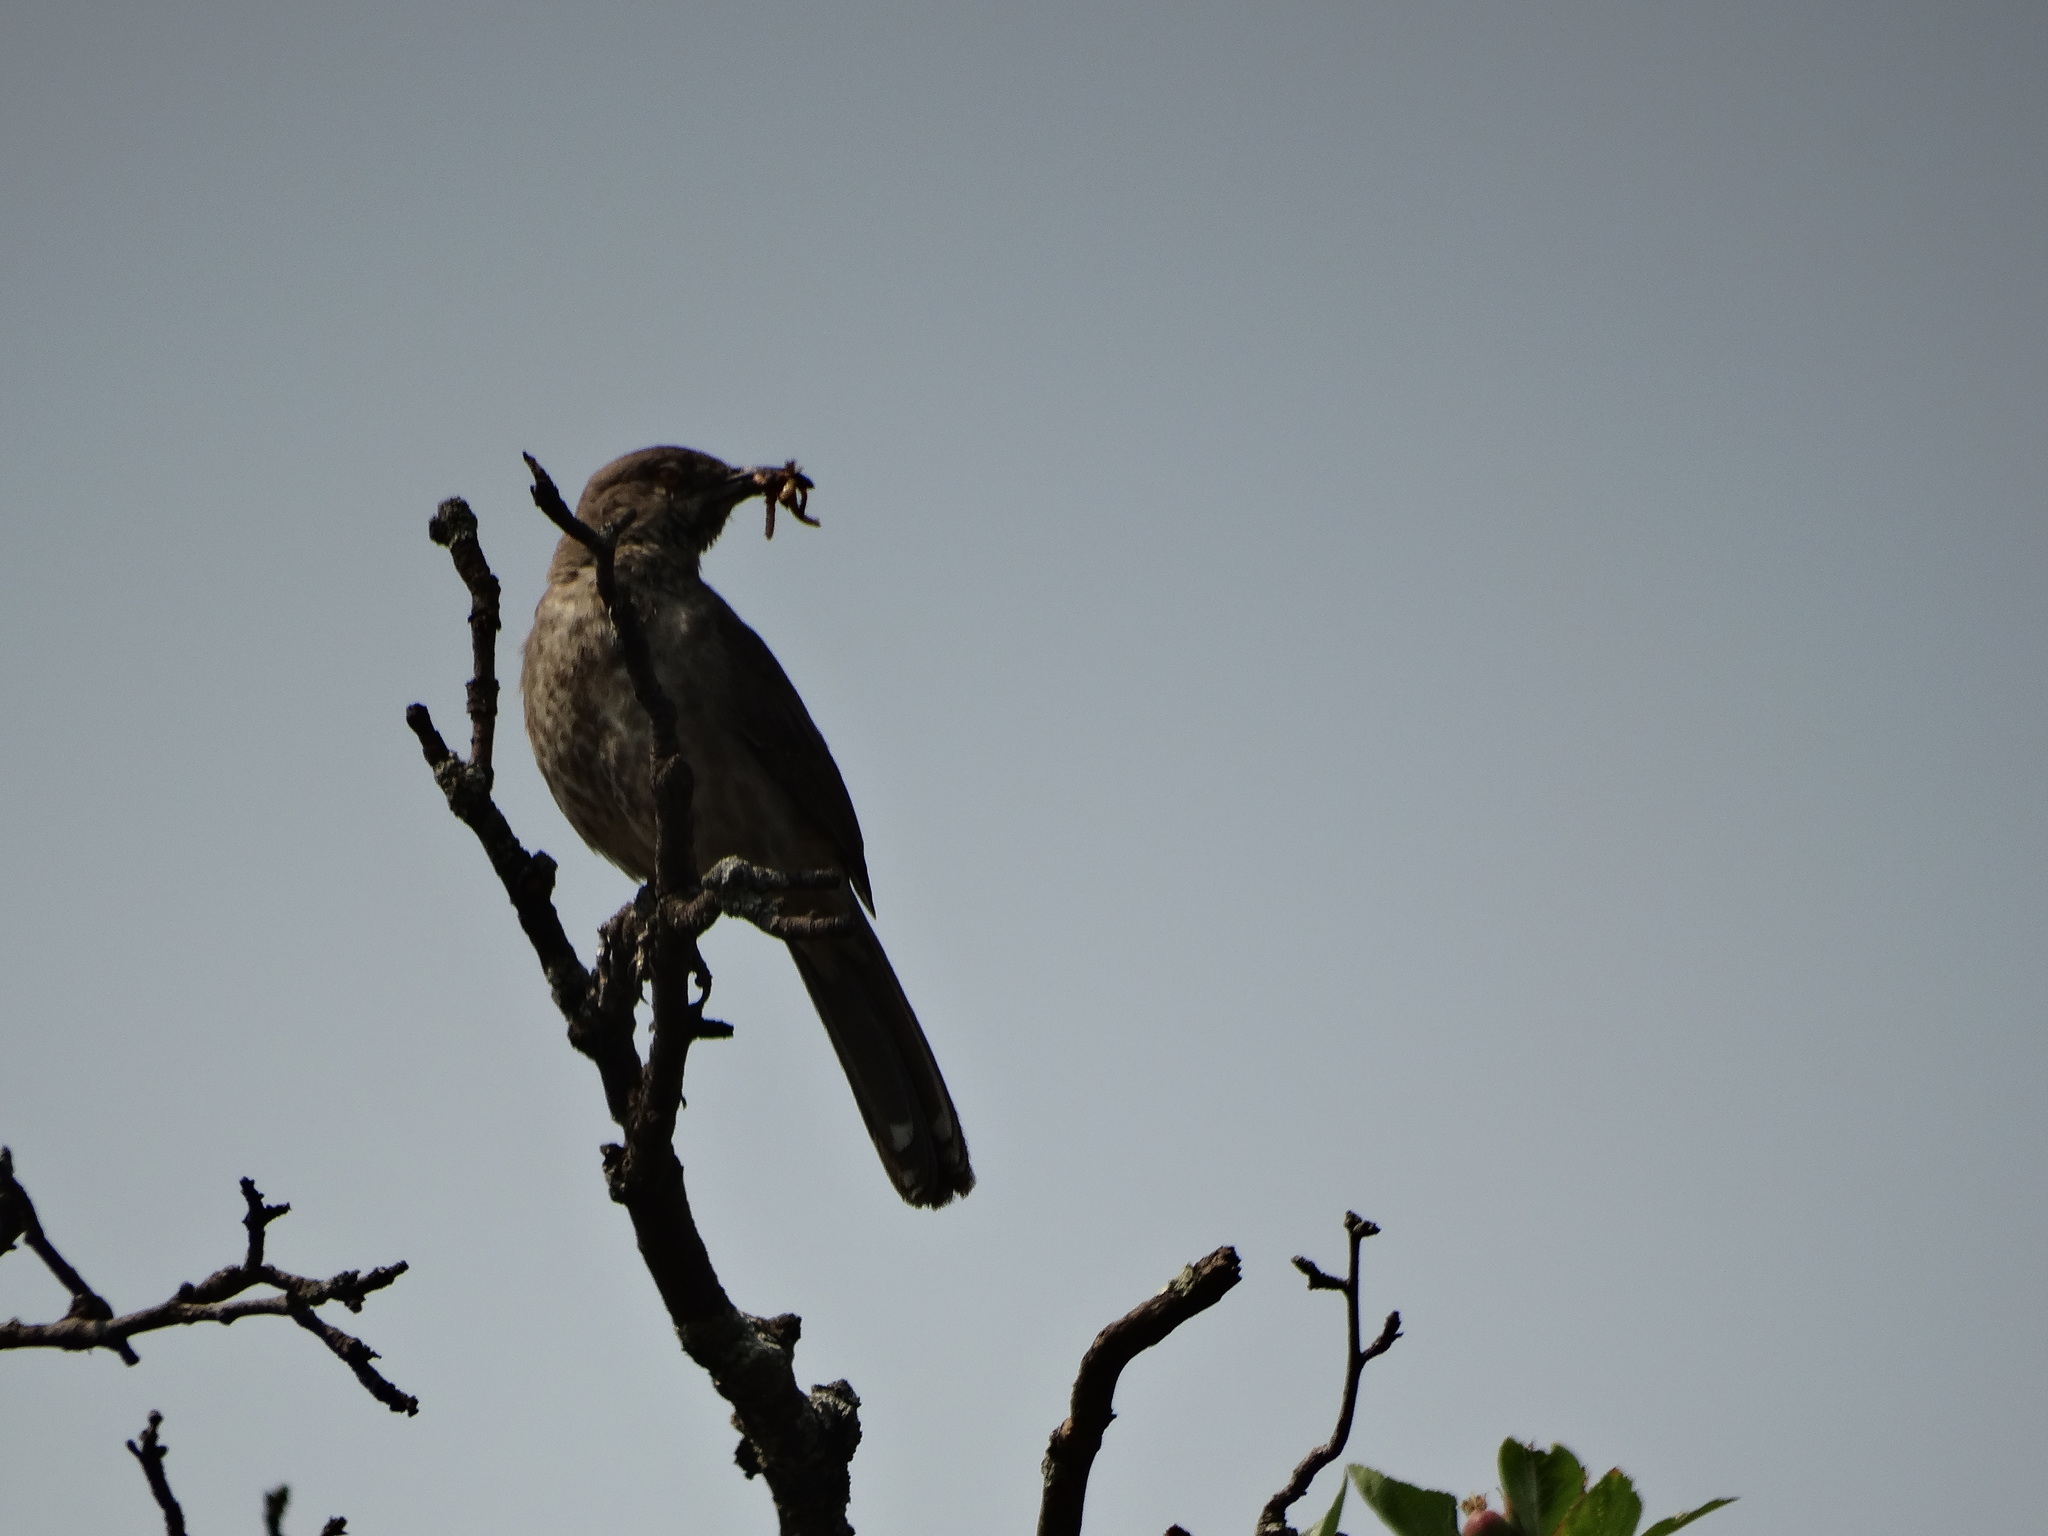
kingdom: Animalia
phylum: Chordata
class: Aves
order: Passeriformes
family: Mimidae
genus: Toxostoma
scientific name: Toxostoma curvirostre
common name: Curve-billed thrasher
